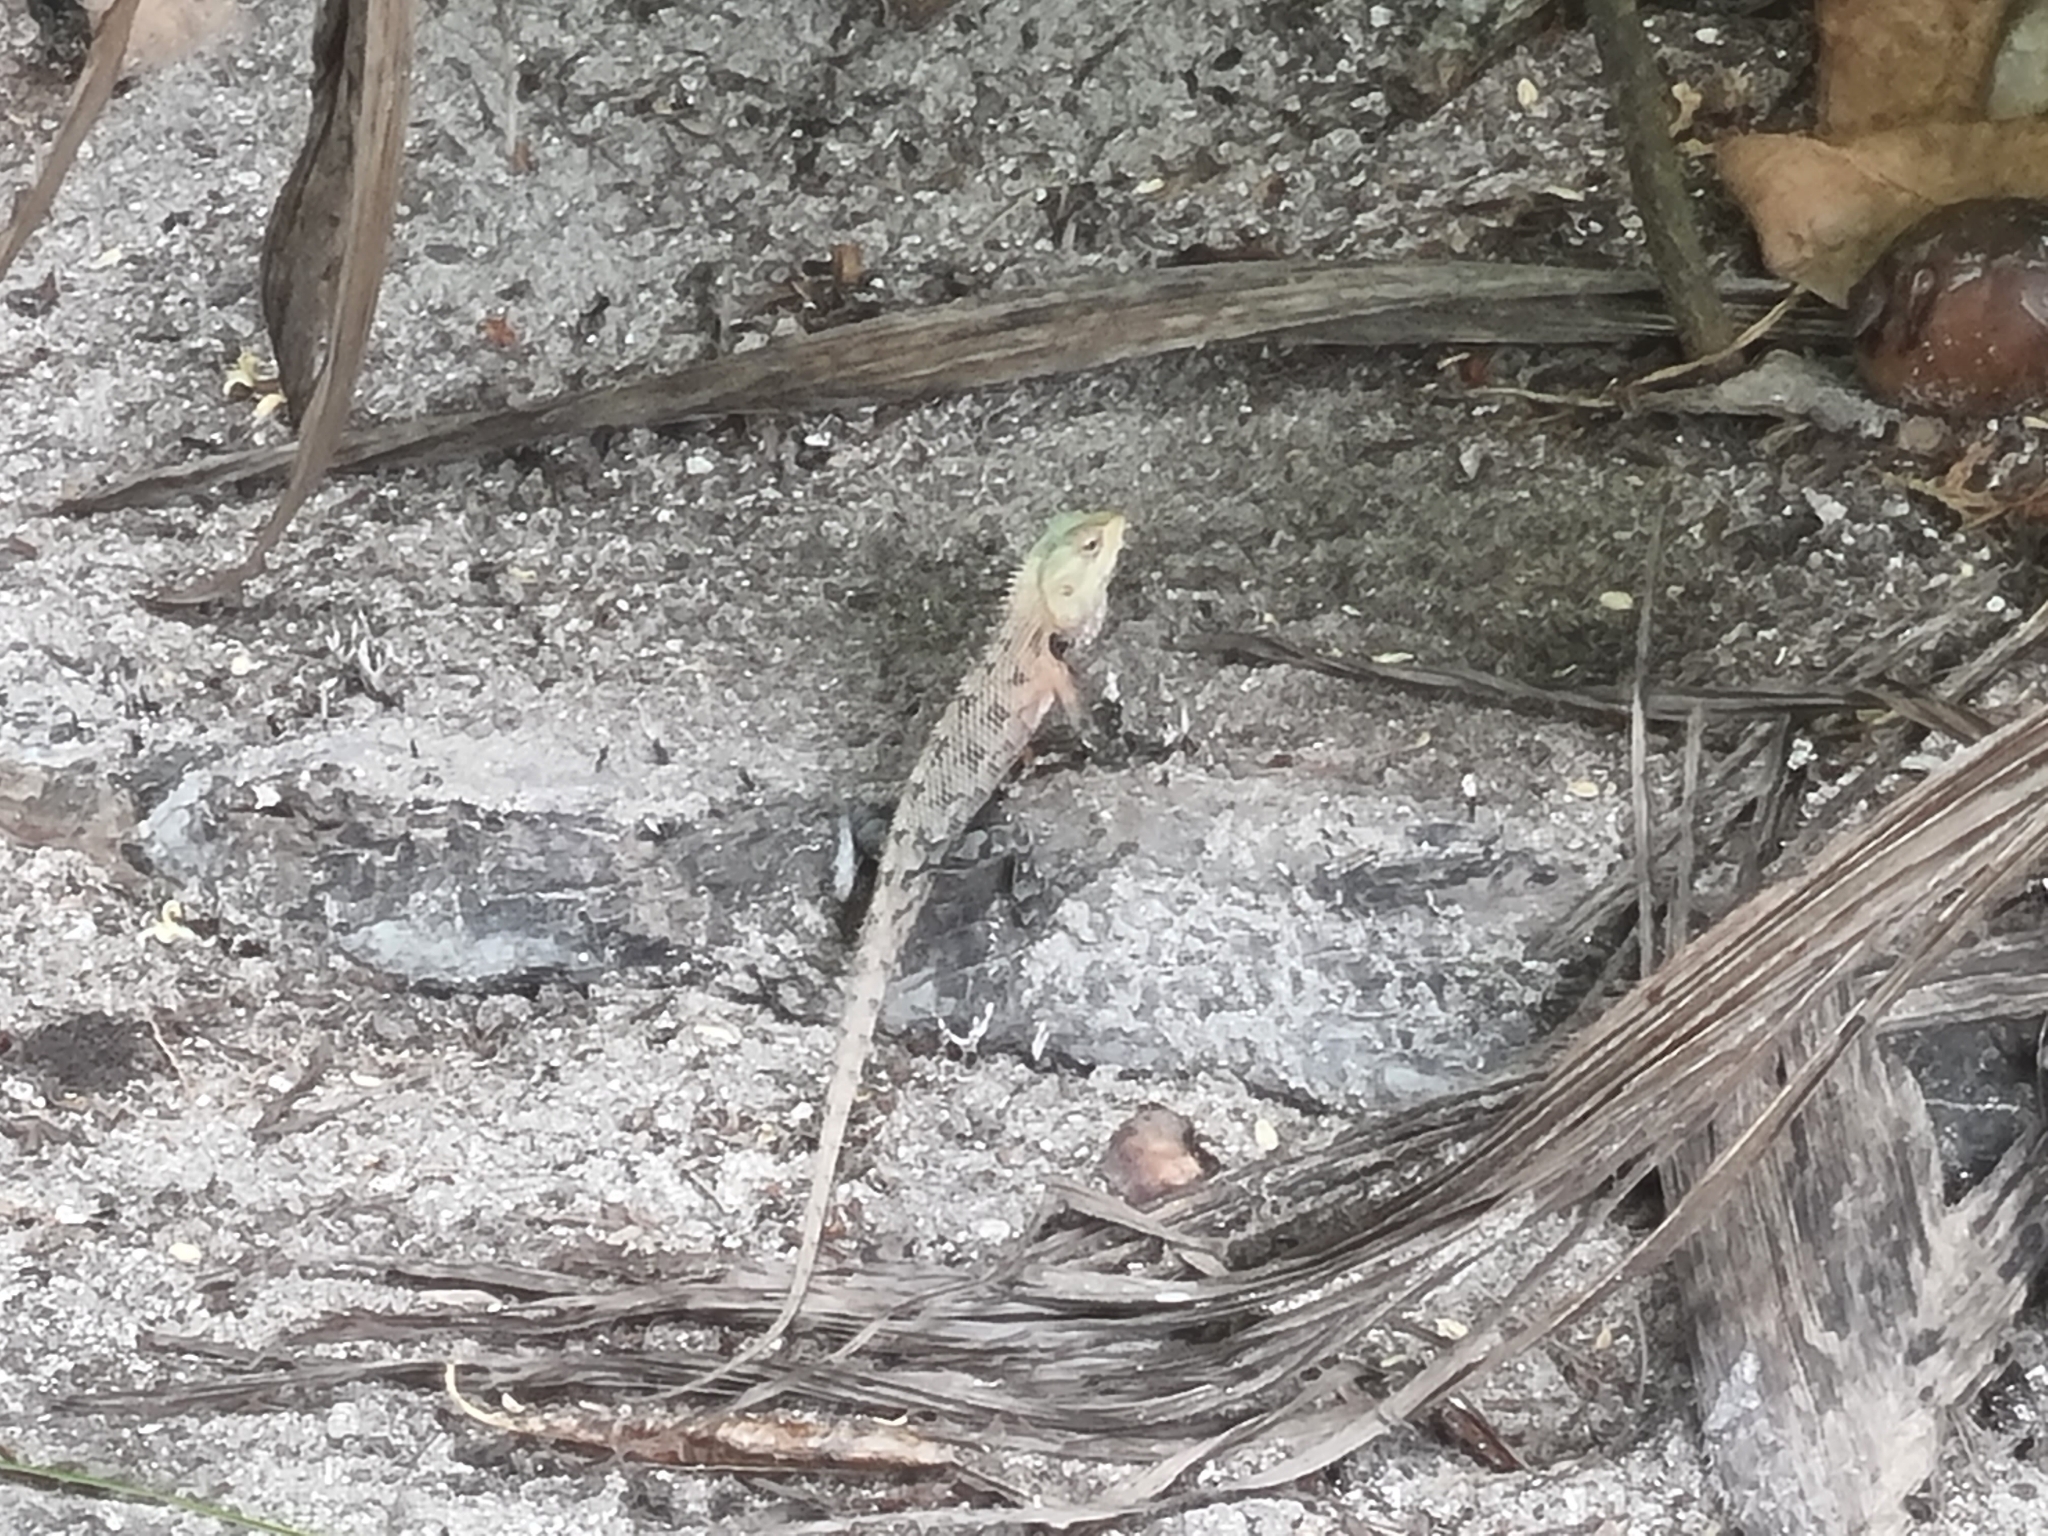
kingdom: Animalia
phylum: Chordata
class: Squamata
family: Agamidae
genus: Calotes
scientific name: Calotes versicolor
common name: Oriental garden lizard
